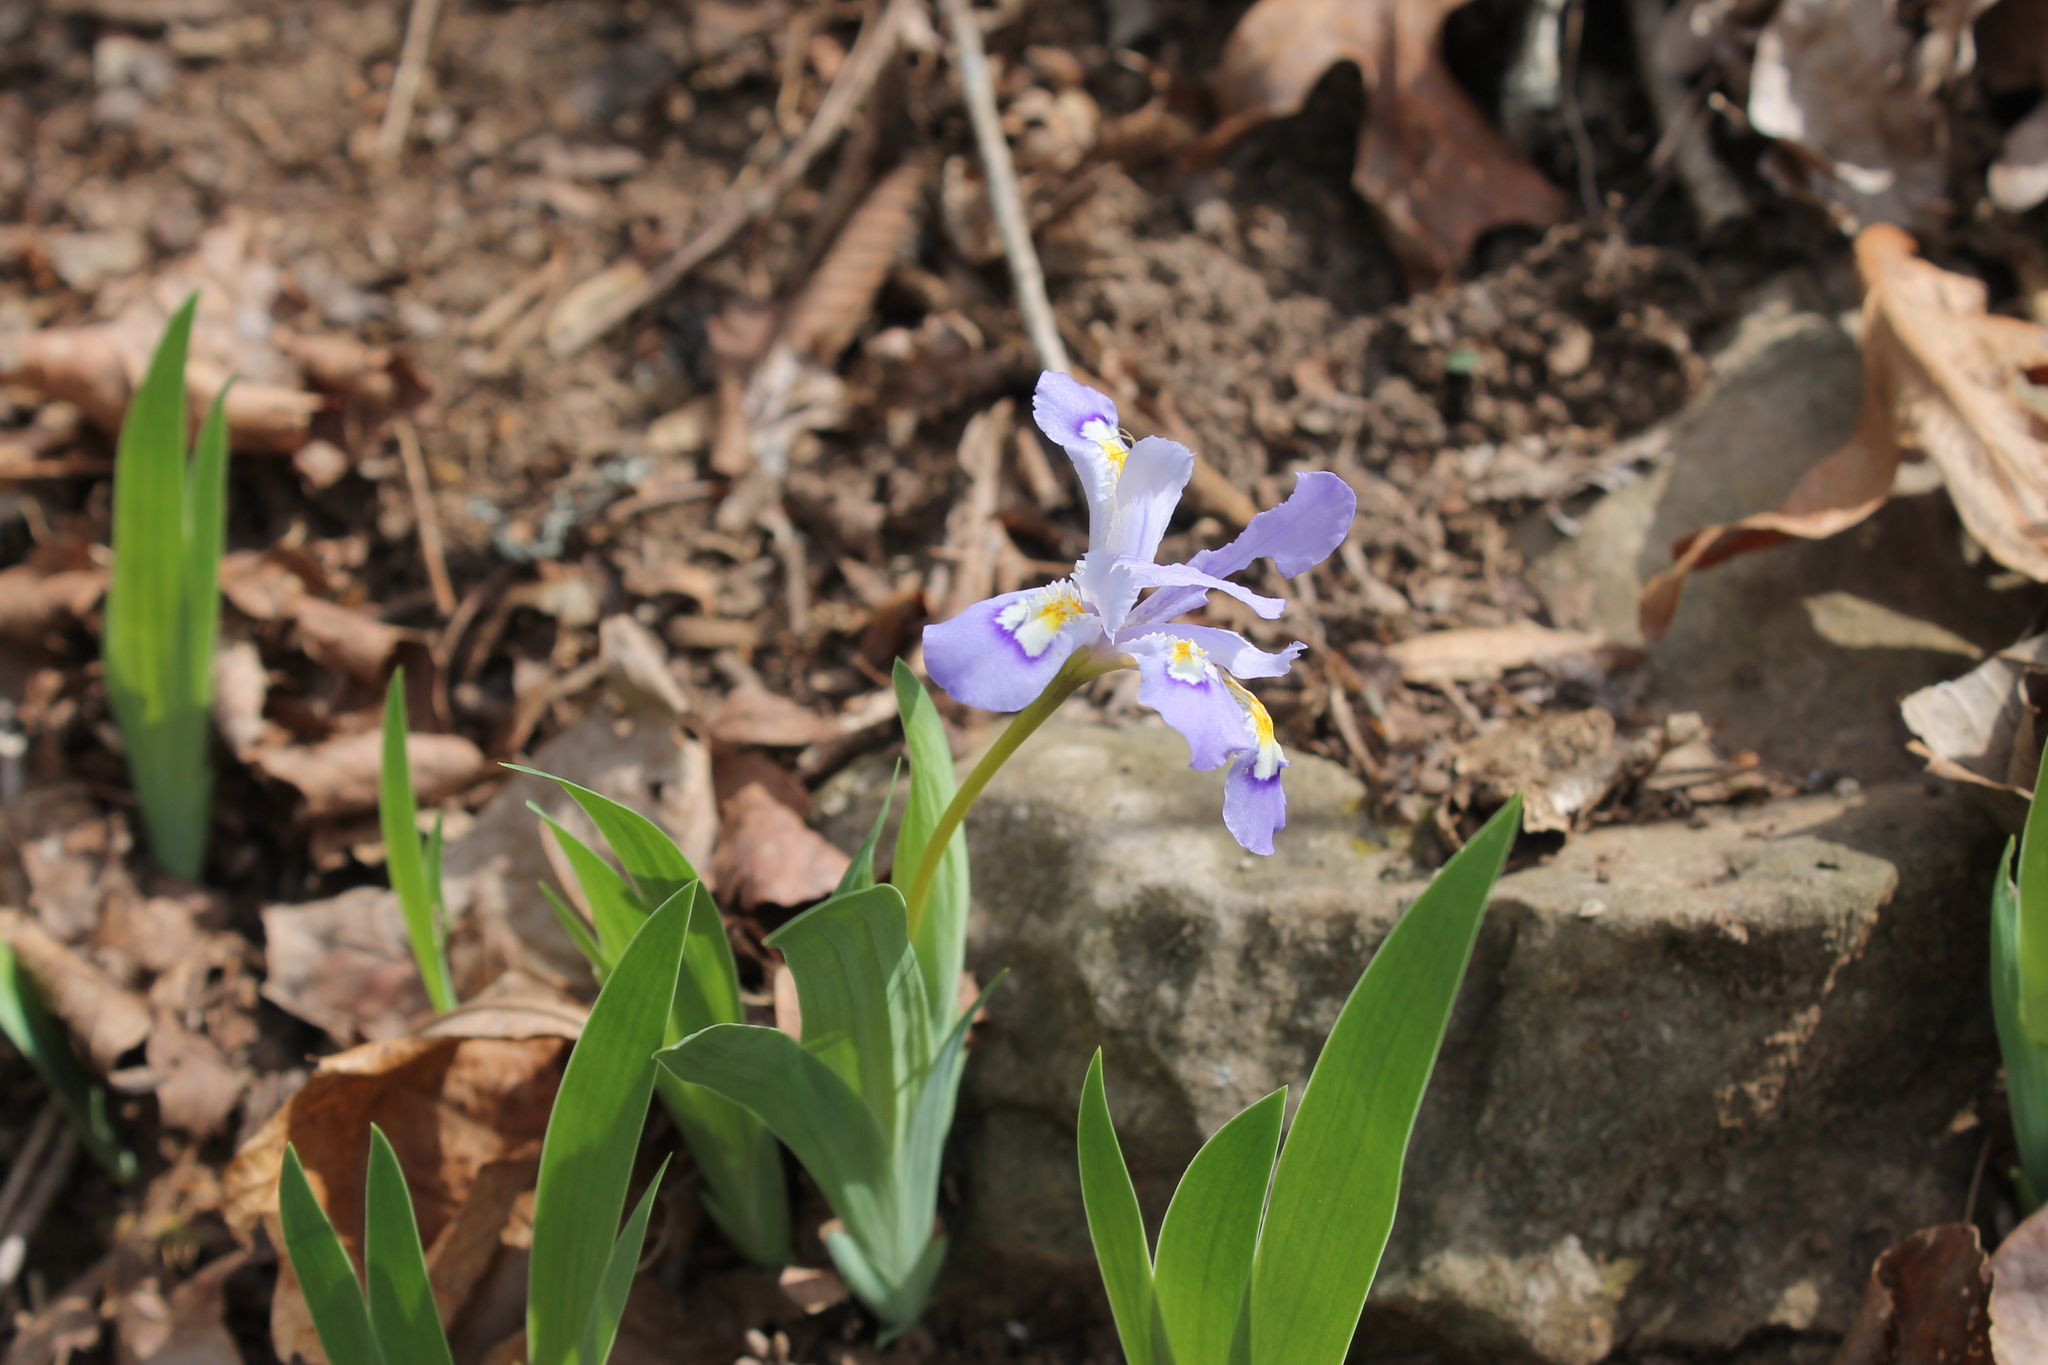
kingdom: Plantae
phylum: Tracheophyta
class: Liliopsida
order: Asparagales
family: Iridaceae
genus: Iris
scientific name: Iris cristata
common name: Crested iris
